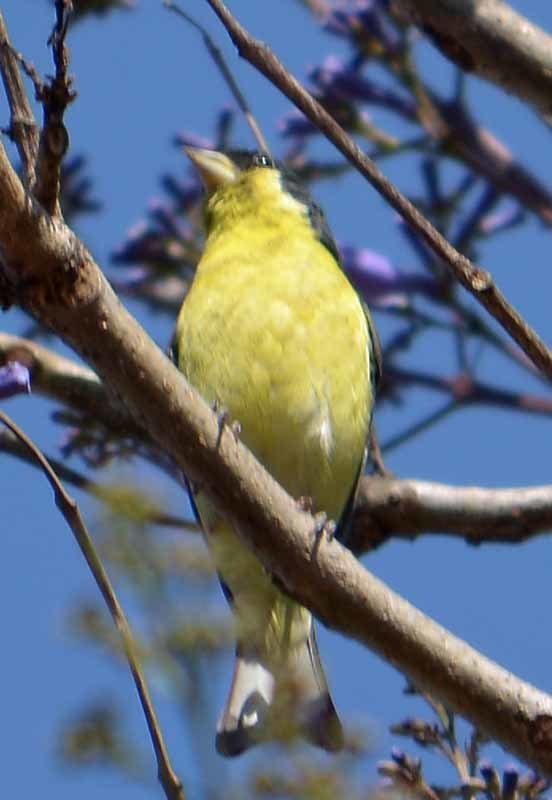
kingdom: Animalia
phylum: Chordata
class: Aves
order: Passeriformes
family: Fringillidae
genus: Spinus
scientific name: Spinus psaltria
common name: Lesser goldfinch
